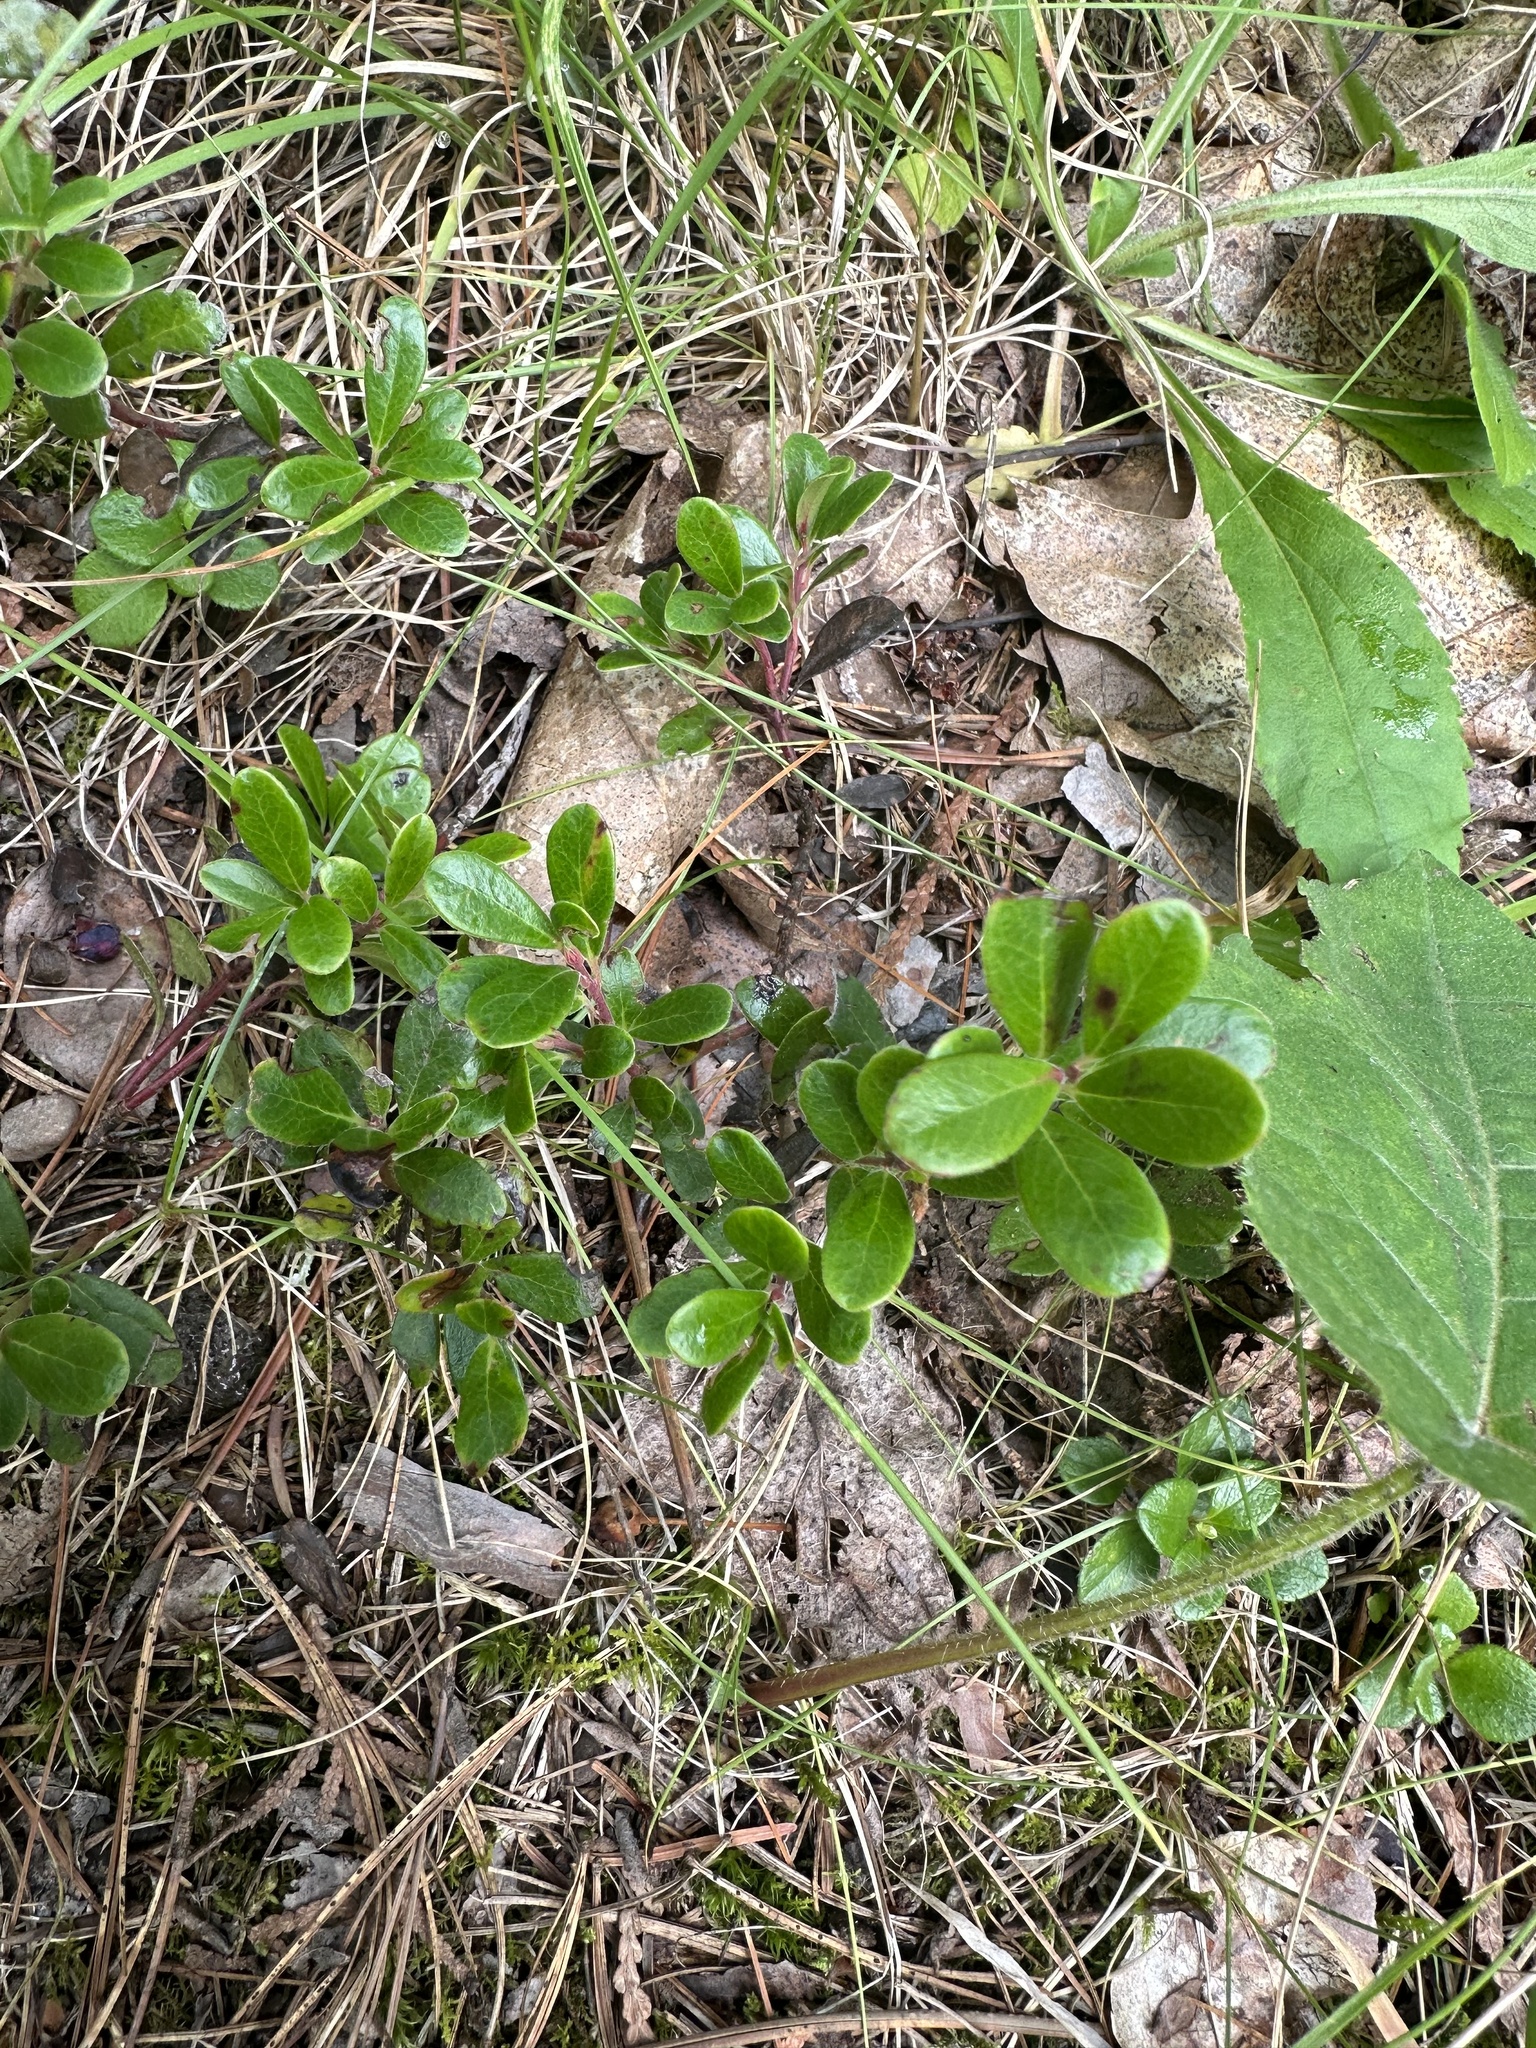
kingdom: Plantae
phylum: Tracheophyta
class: Magnoliopsida
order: Ericales
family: Ericaceae
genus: Arctostaphylos
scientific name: Arctostaphylos uva-ursi
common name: Bearberry
